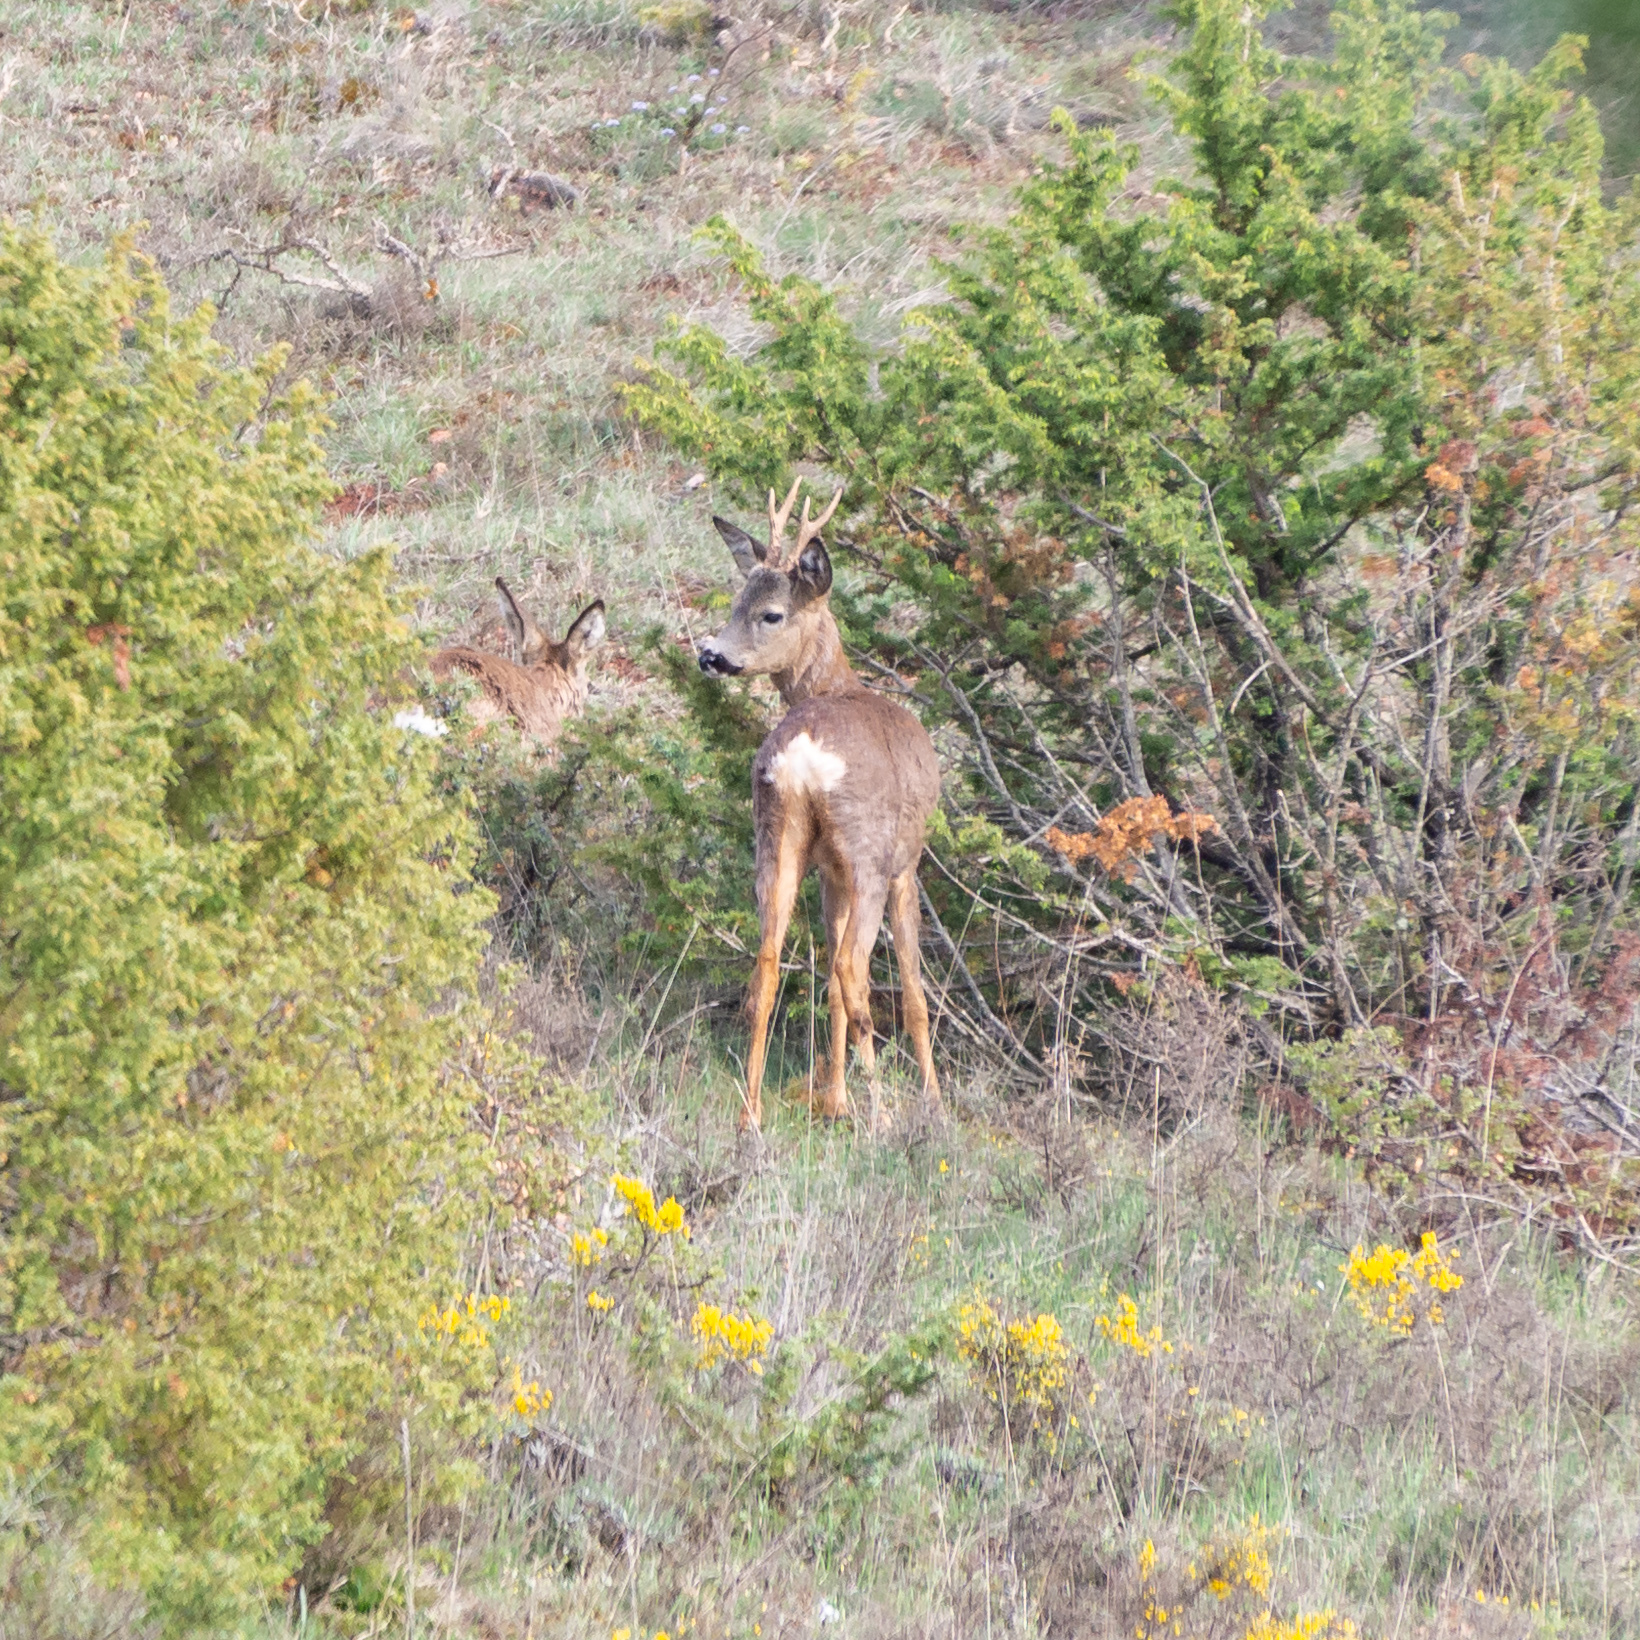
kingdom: Animalia
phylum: Chordata
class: Mammalia
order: Artiodactyla
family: Cervidae
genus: Capreolus
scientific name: Capreolus capreolus
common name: Western roe deer
